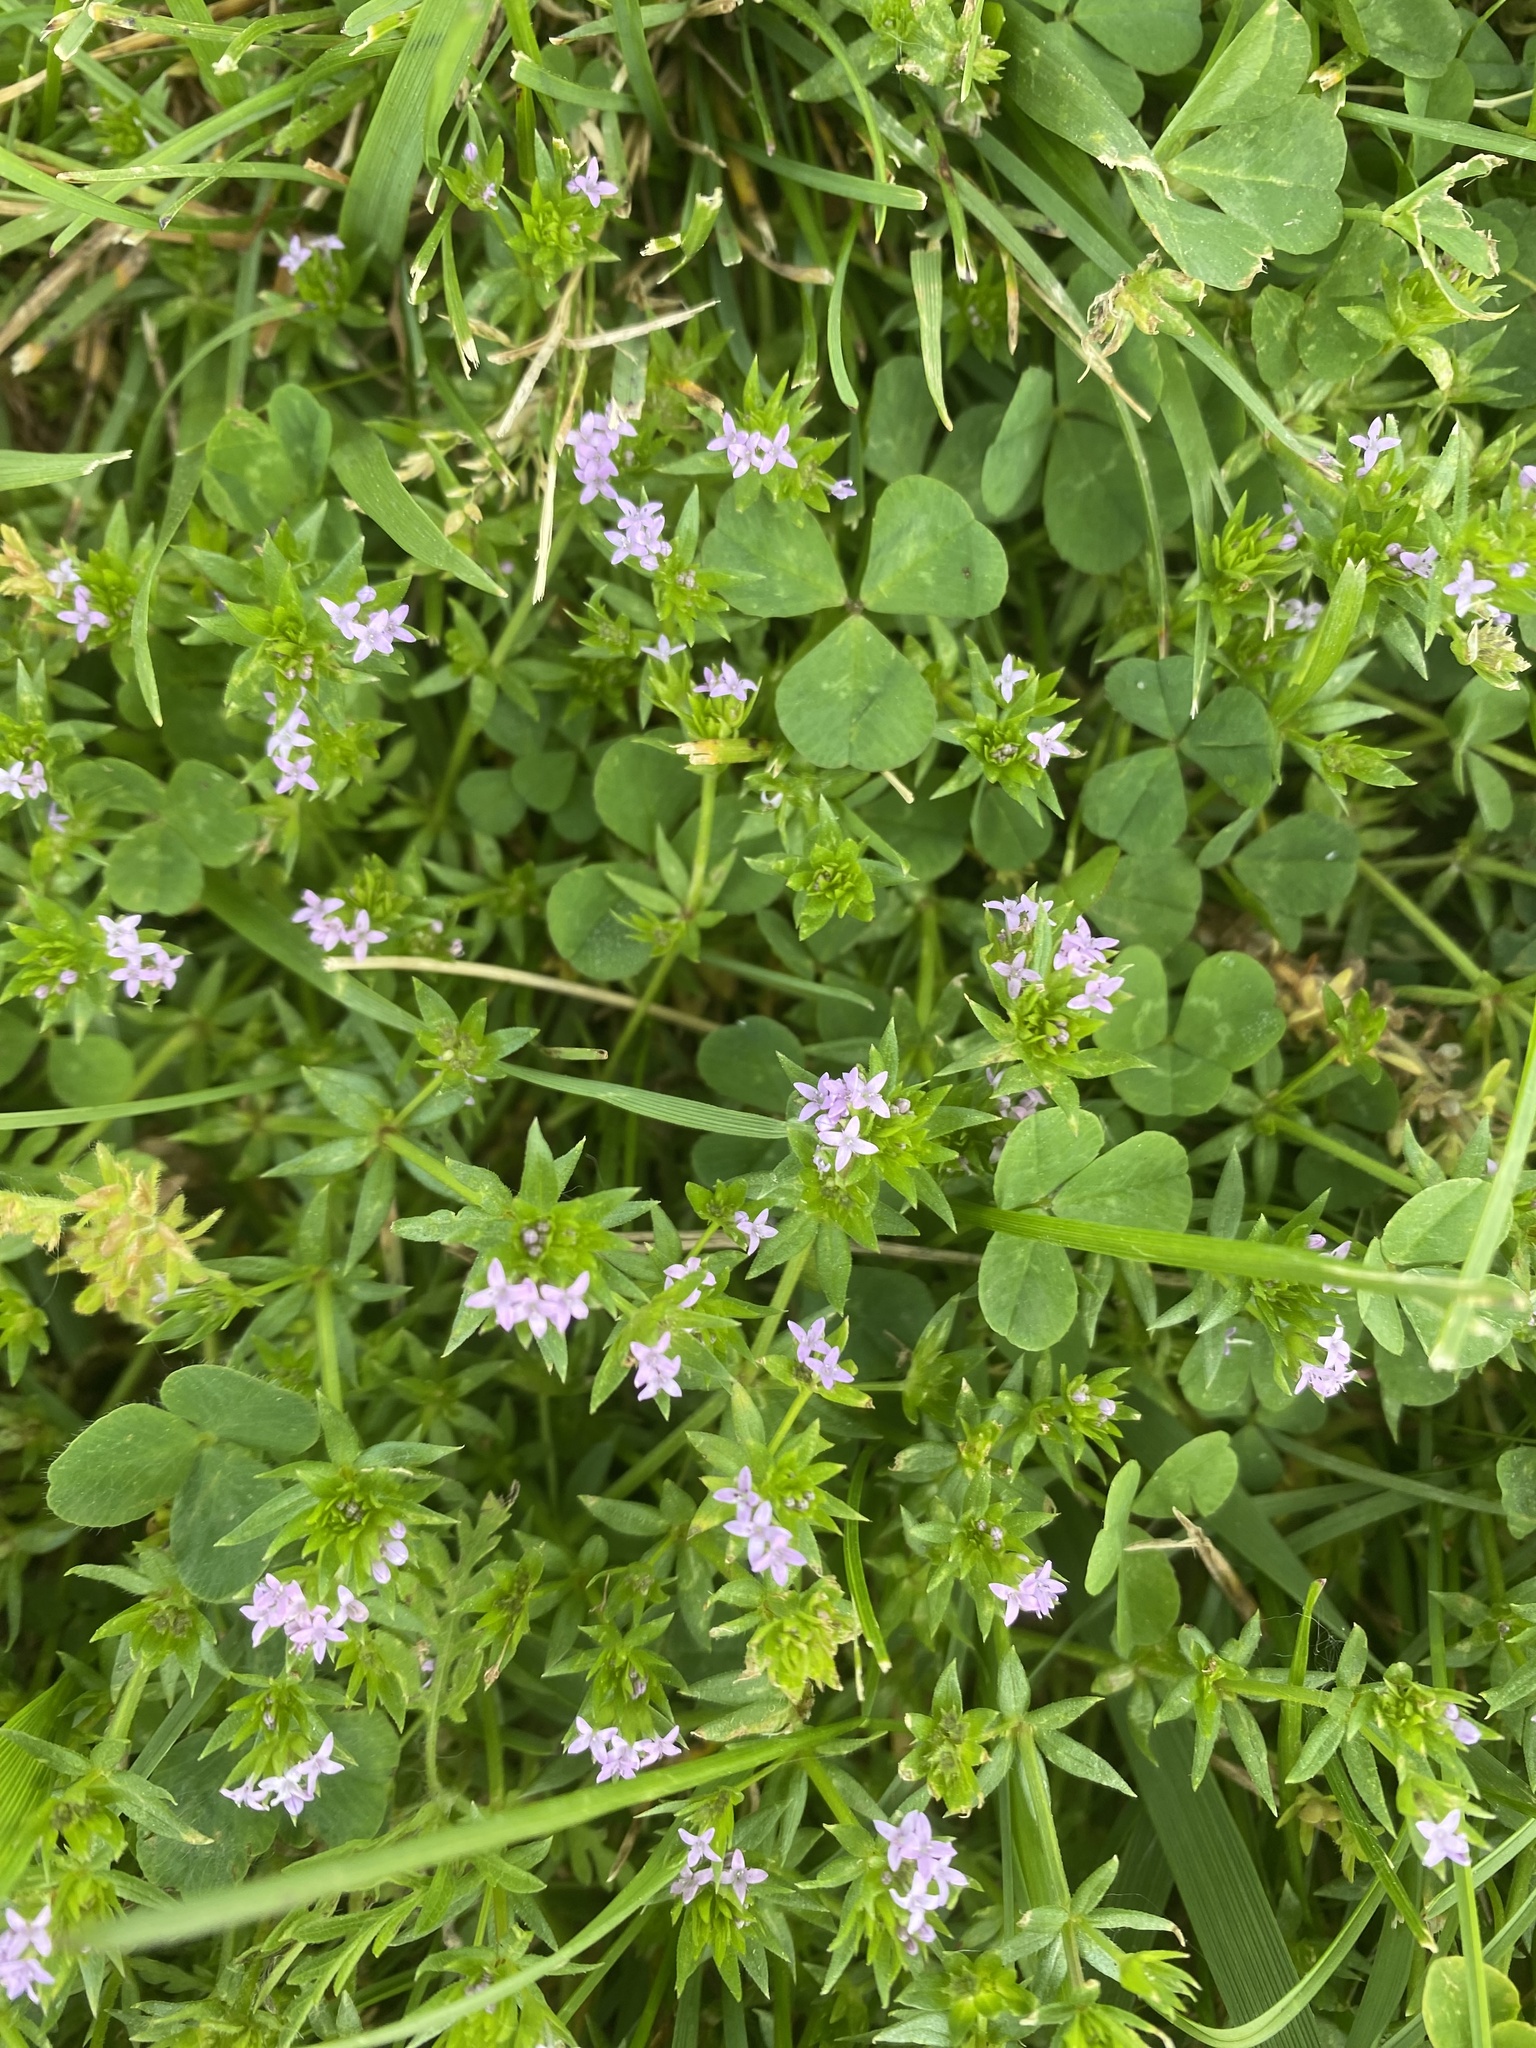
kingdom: Plantae
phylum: Tracheophyta
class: Magnoliopsida
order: Gentianales
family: Rubiaceae
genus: Sherardia
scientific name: Sherardia arvensis
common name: Field madder
